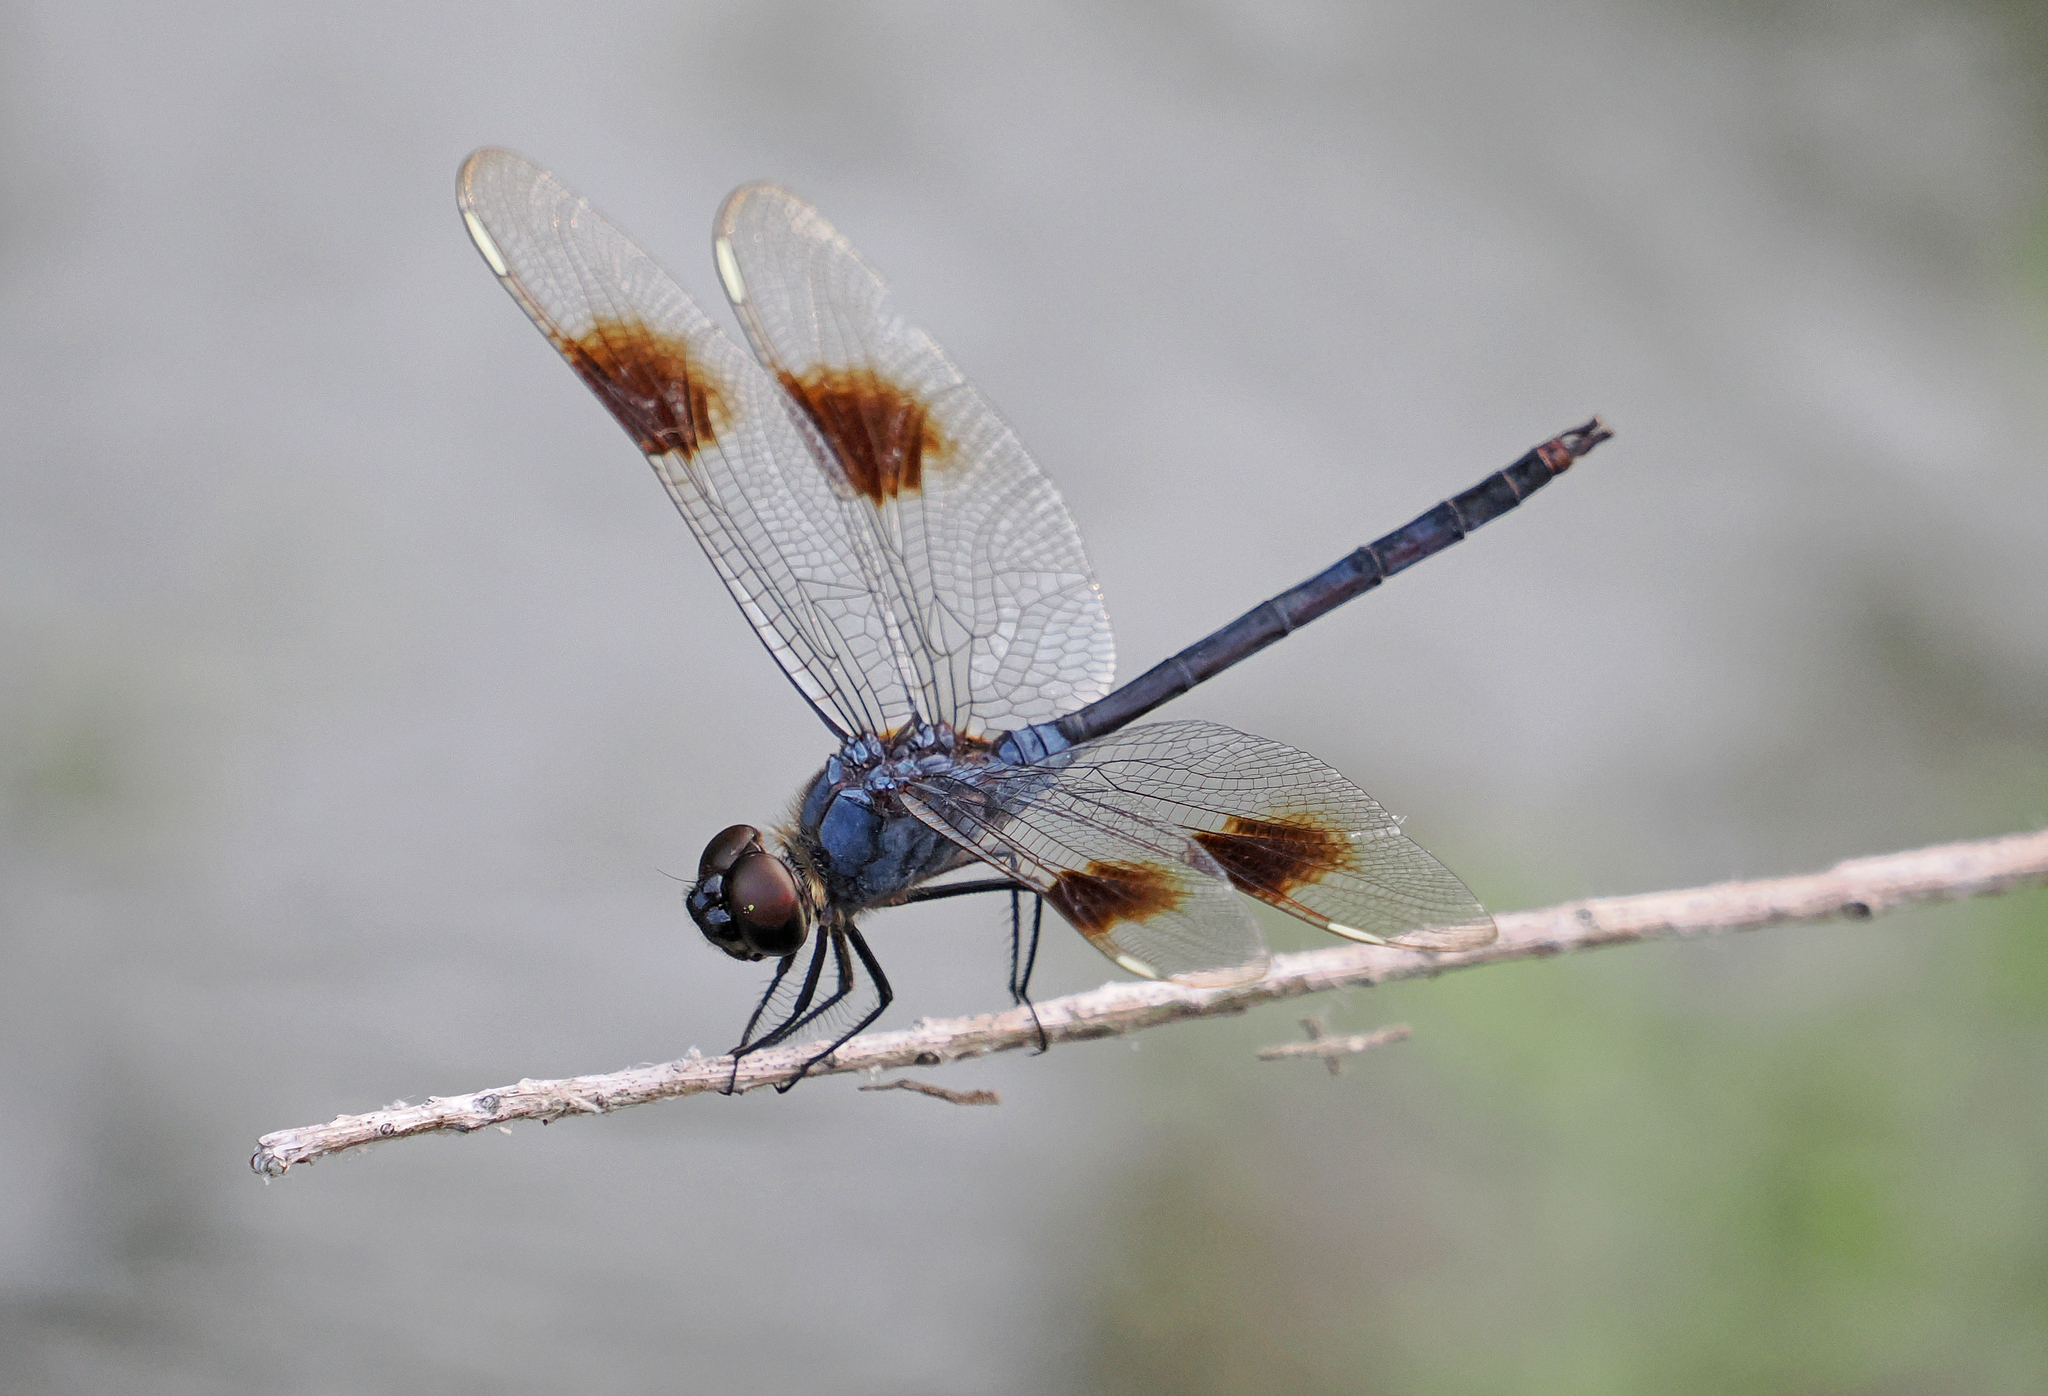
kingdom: Animalia
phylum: Arthropoda
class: Insecta
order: Odonata
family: Libellulidae
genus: Brachymesia
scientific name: Brachymesia gravida
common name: Four-spotted pennant
